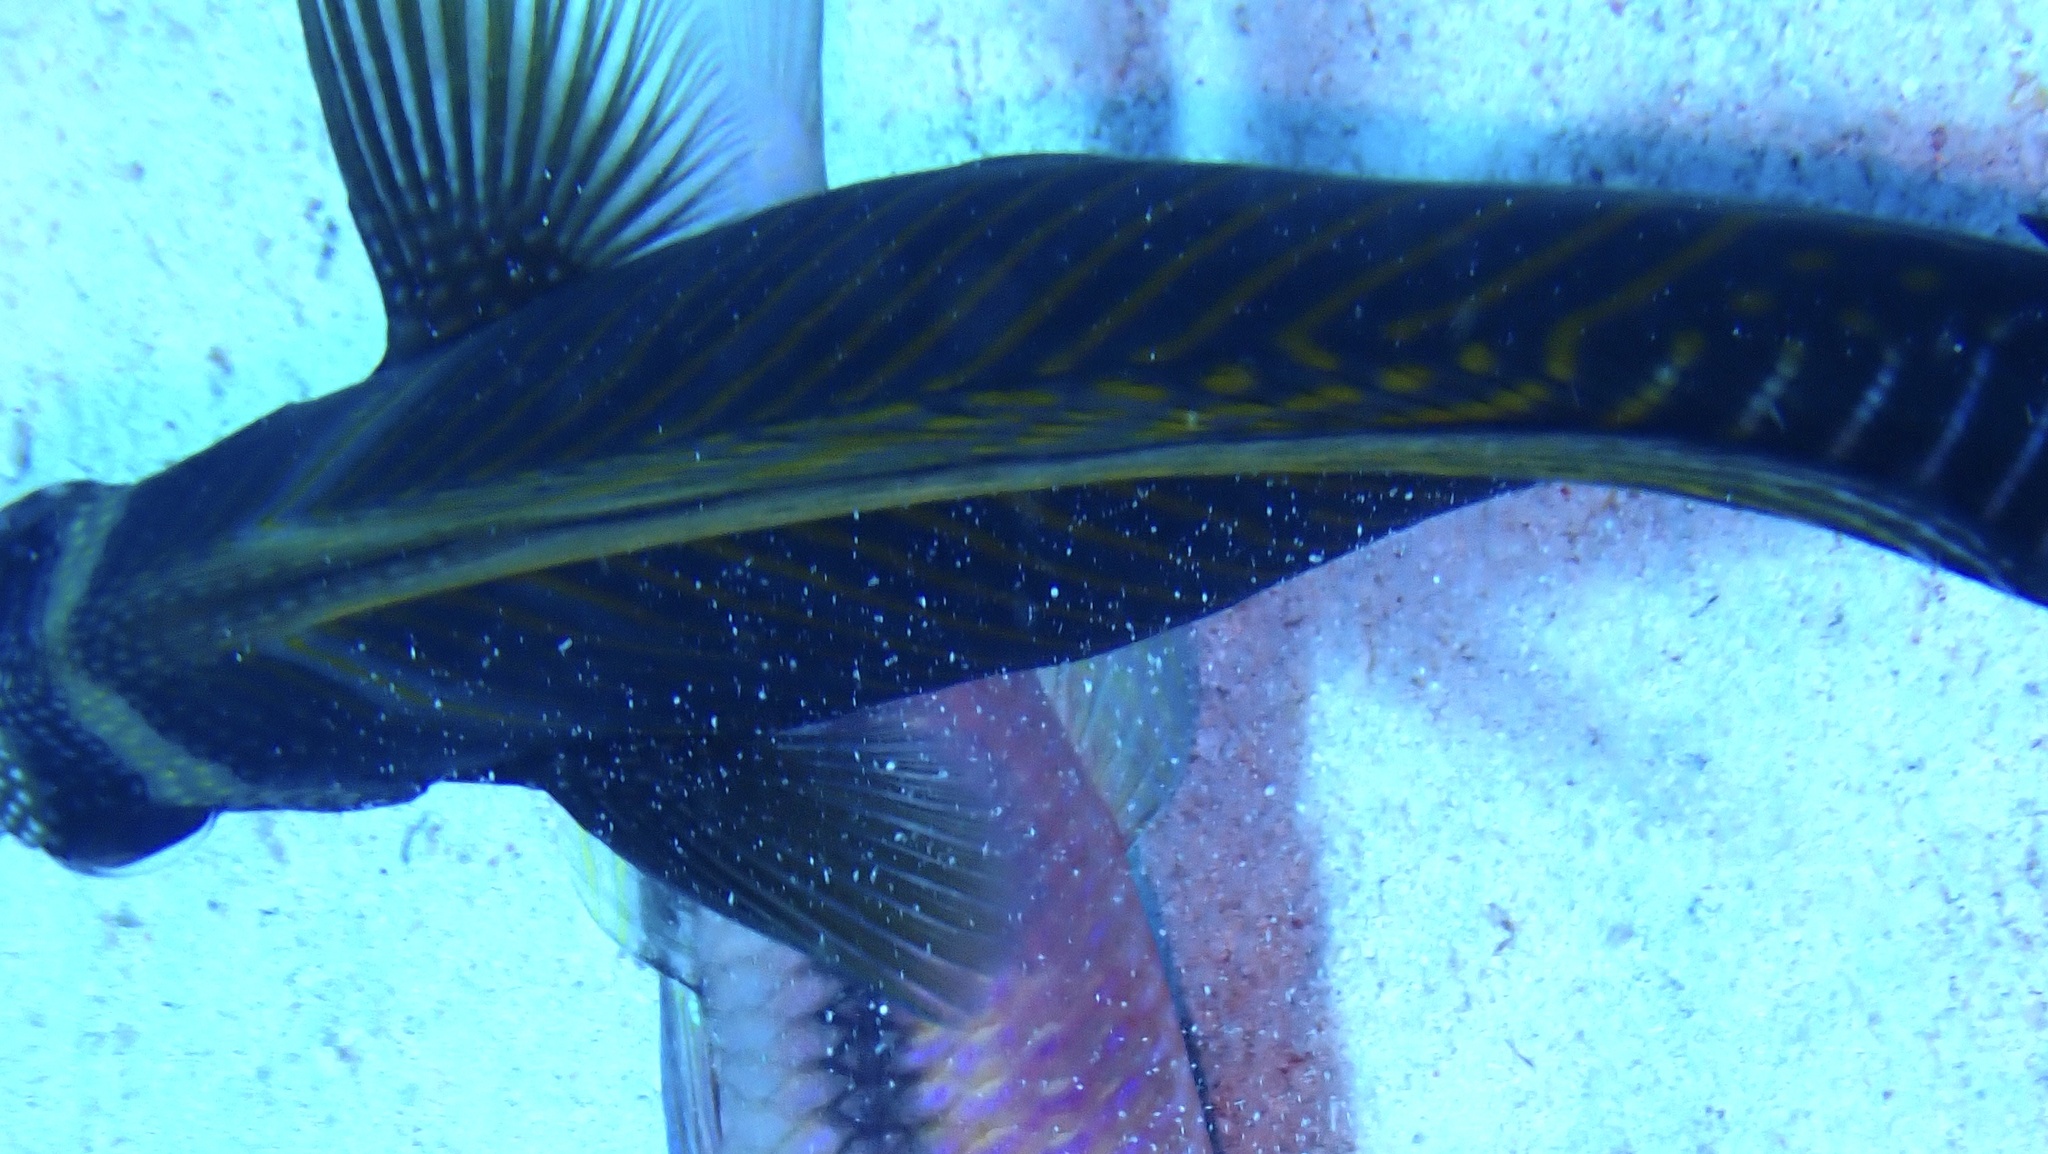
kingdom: Animalia
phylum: Chordata
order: Perciformes
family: Acanthuridae
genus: Zebrasoma
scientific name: Zebrasoma desjardinii
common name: Desjardin's sailfin tang
